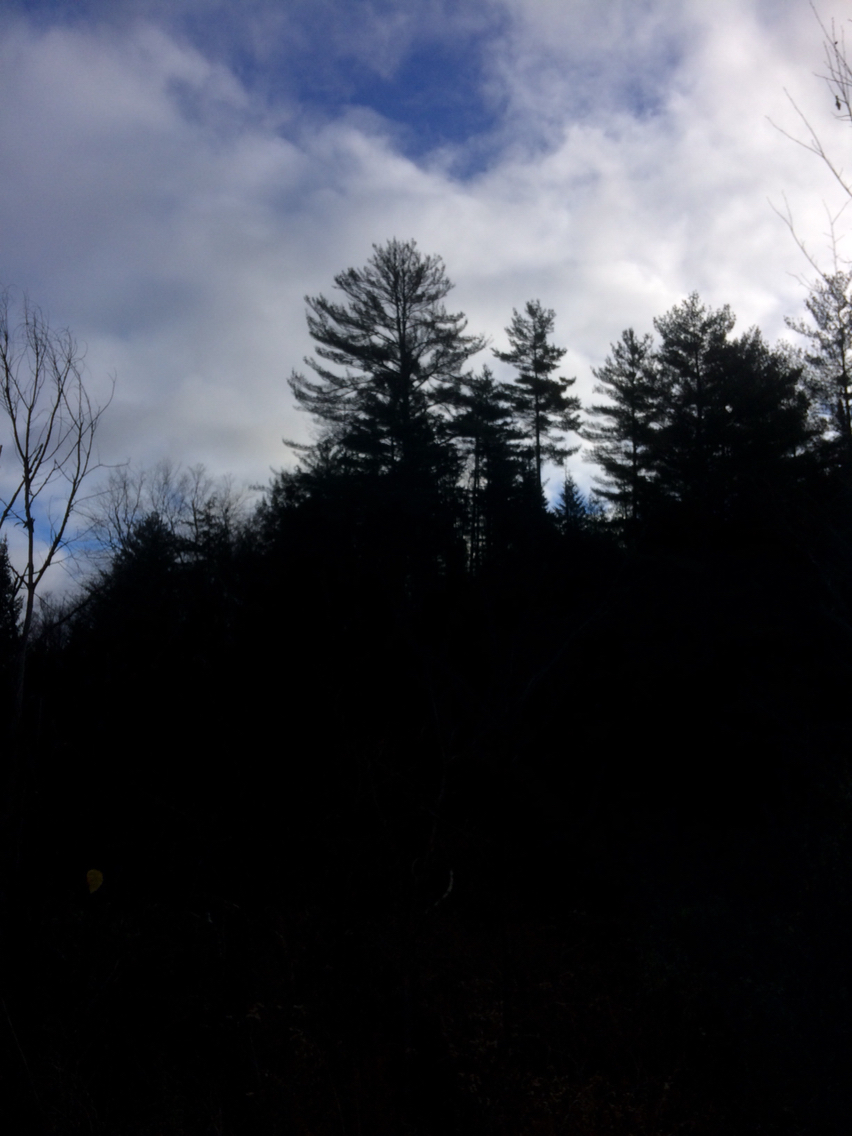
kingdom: Plantae
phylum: Tracheophyta
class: Pinopsida
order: Pinales
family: Pinaceae
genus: Pinus
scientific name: Pinus strobus
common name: Weymouth pine
